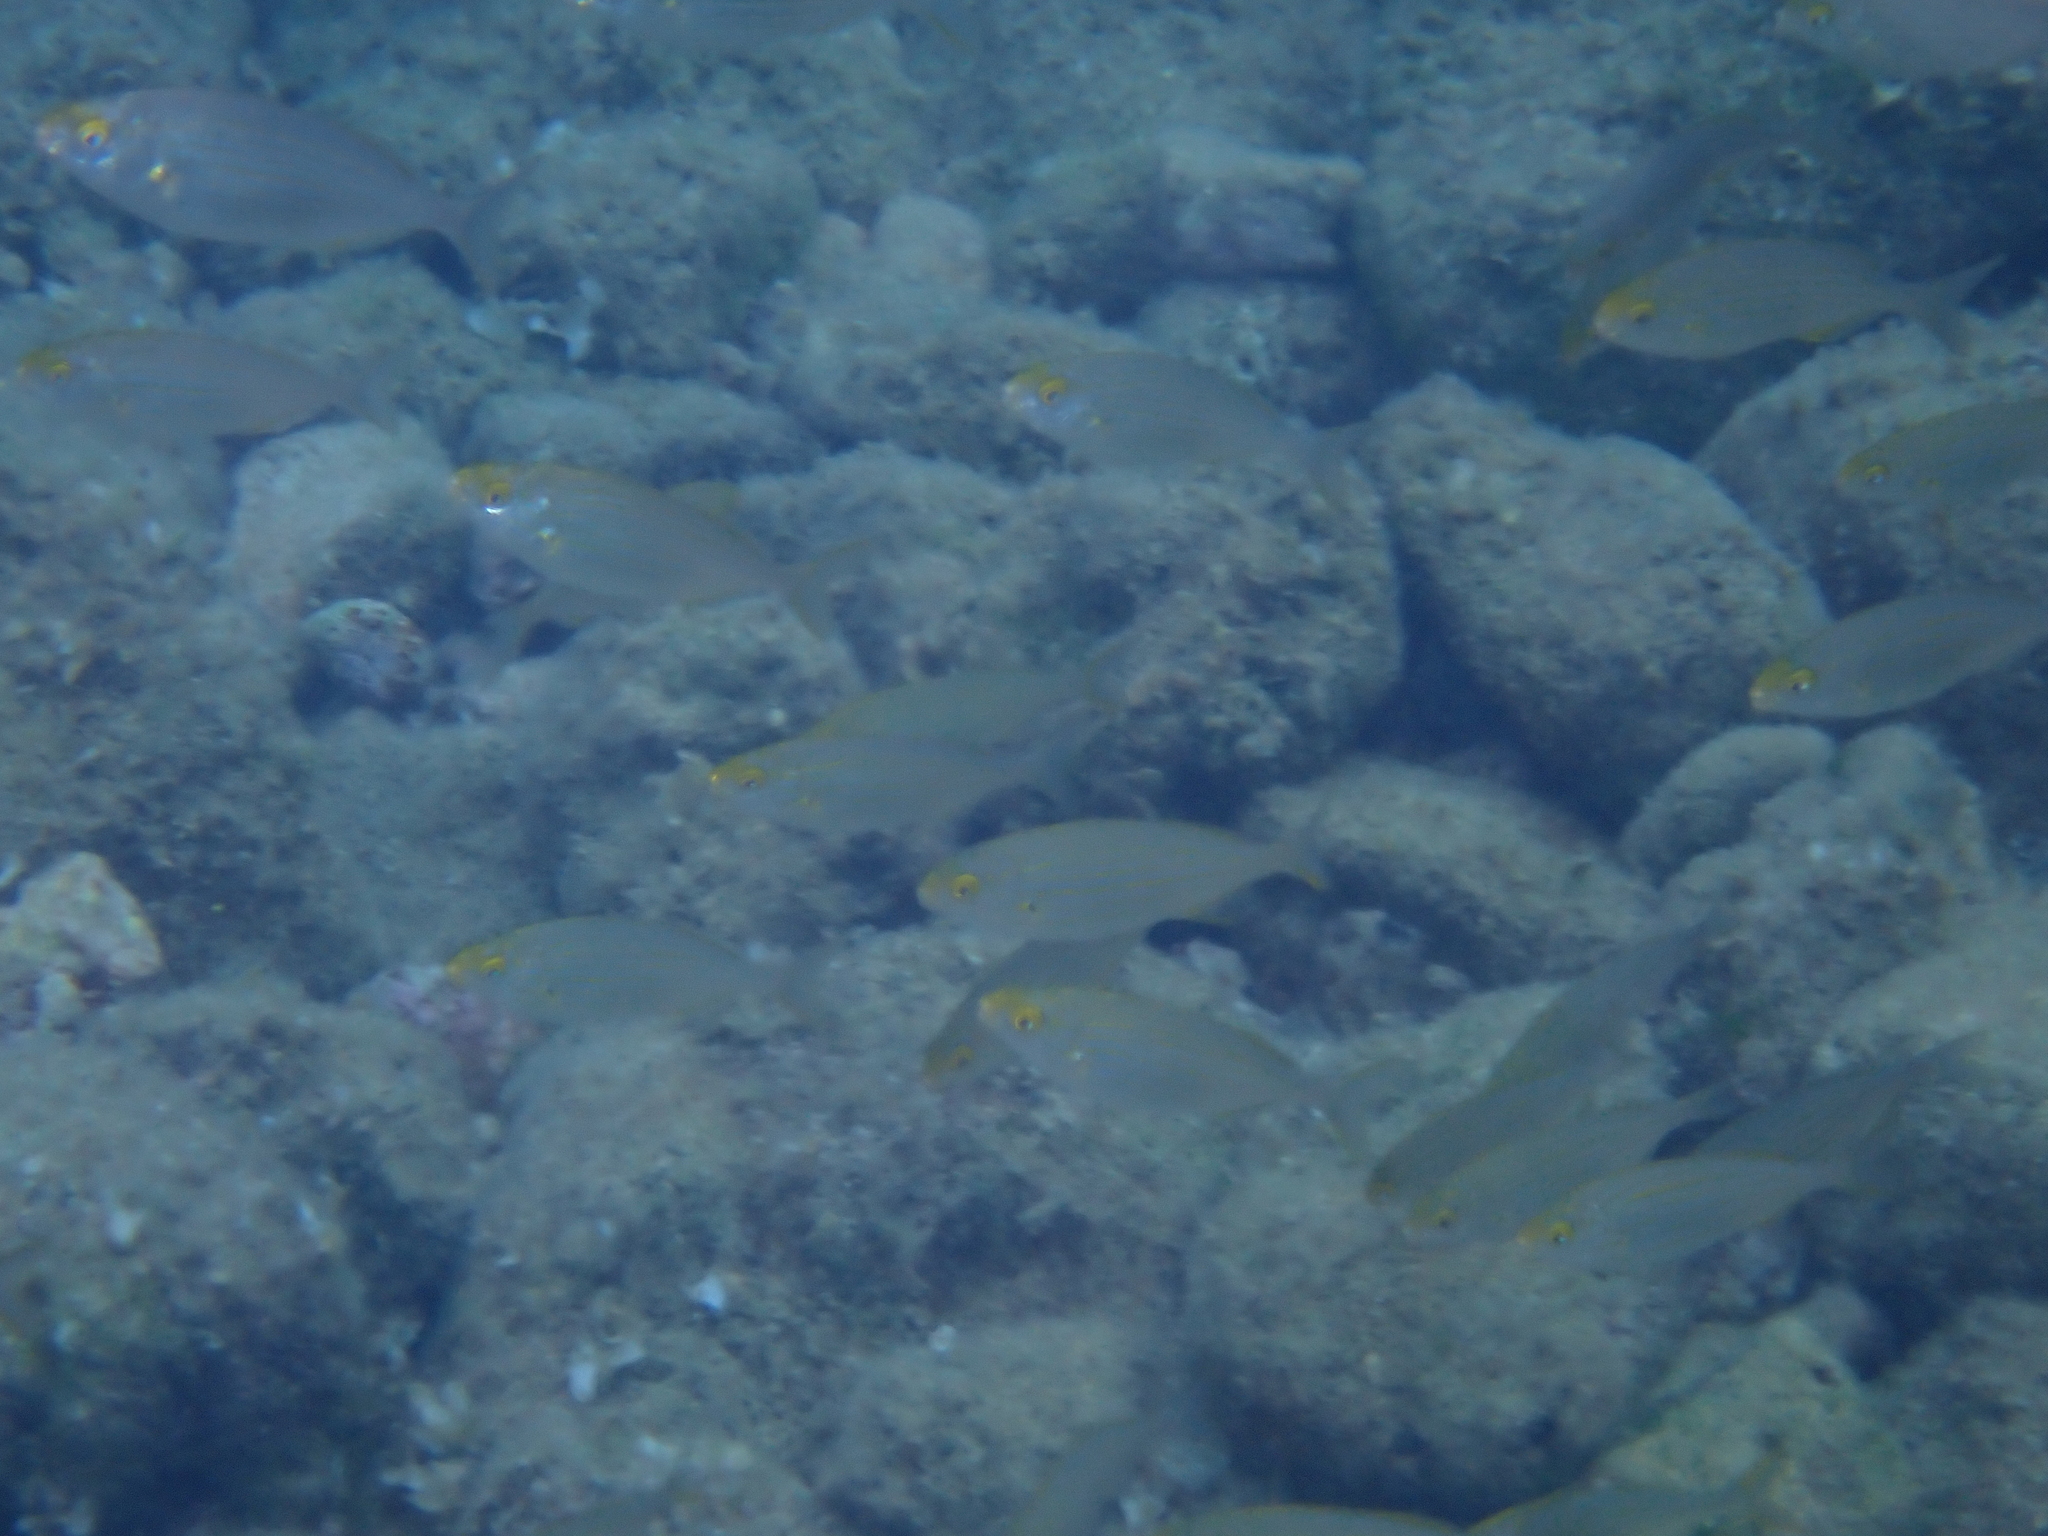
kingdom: Animalia
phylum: Chordata
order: Perciformes
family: Sparidae
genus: Sarpa
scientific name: Sarpa salpa
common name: Salema
